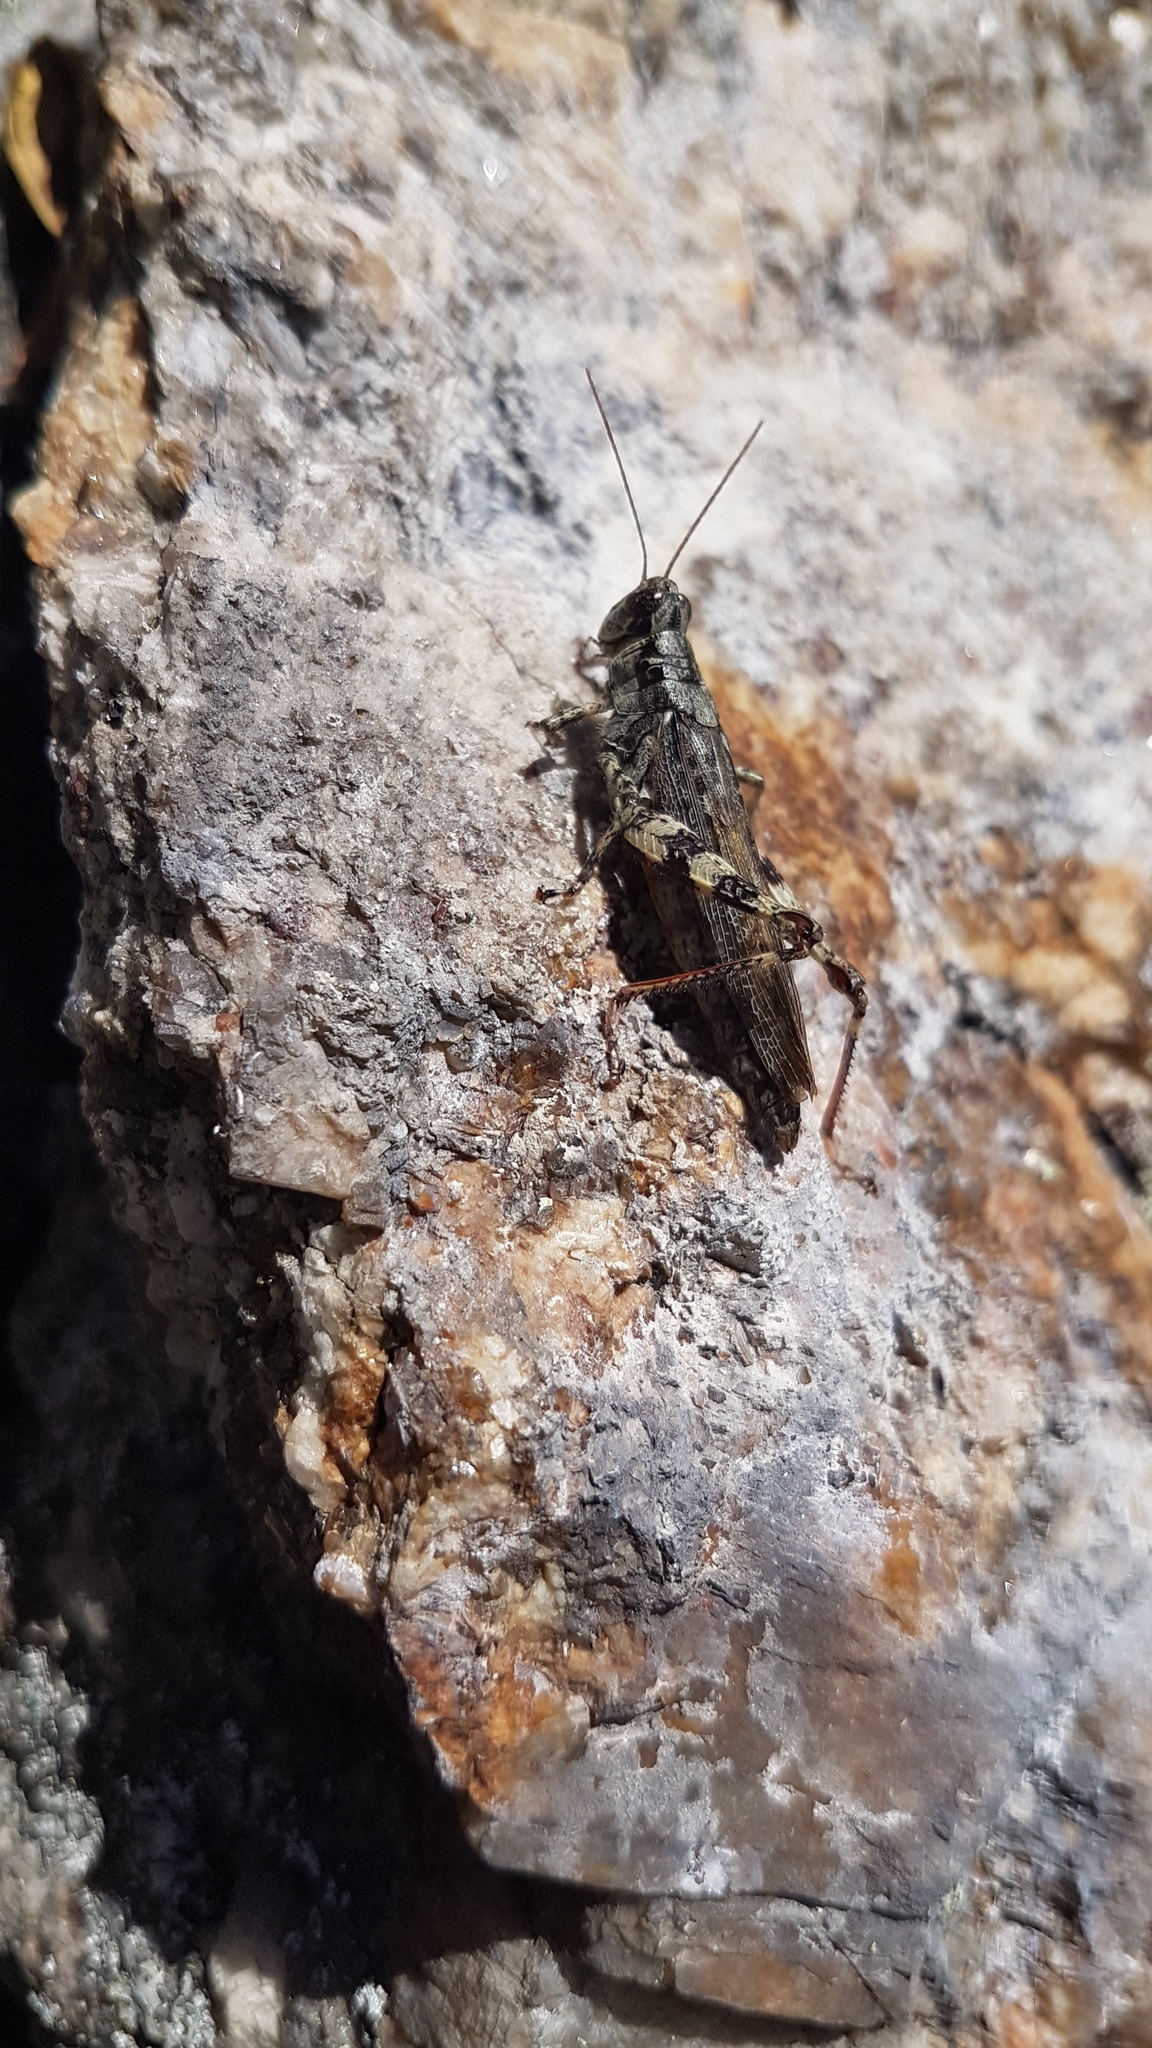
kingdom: Animalia
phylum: Arthropoda
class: Insecta
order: Orthoptera
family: Acrididae
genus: Melanoplus
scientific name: Melanoplus punctulatus
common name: Pine-tree spur-throat grasshopper
